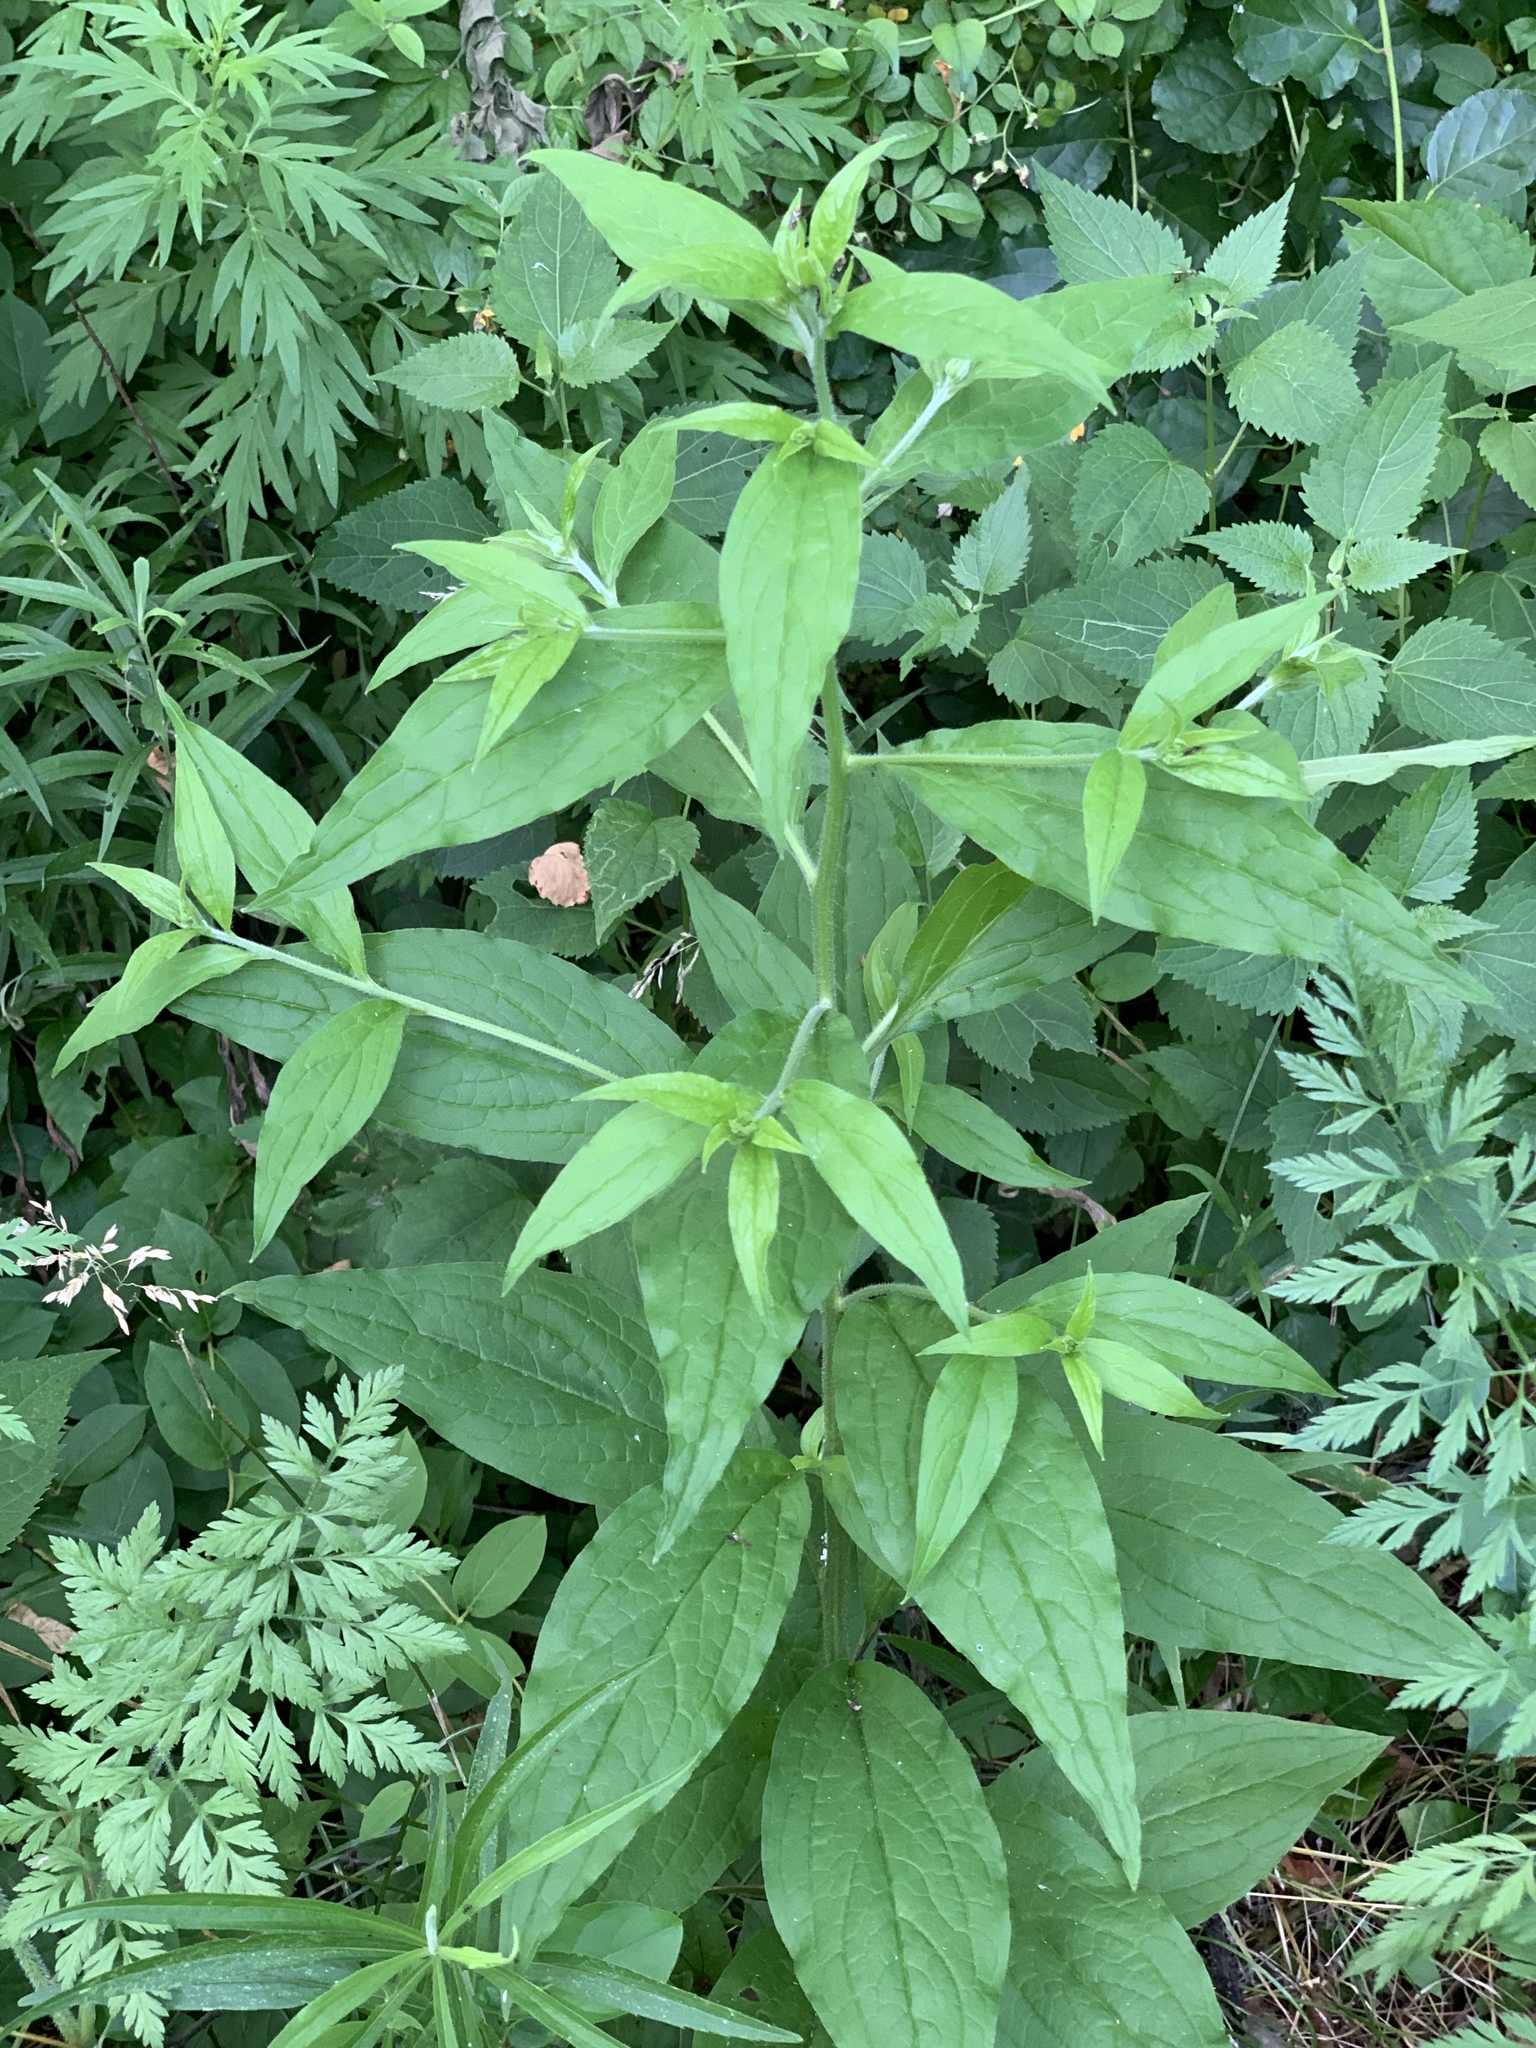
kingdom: Plantae
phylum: Tracheophyta
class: Magnoliopsida
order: Boraginales
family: Boraginaceae
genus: Hackelia
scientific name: Hackelia virginiana
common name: Beggar's-lice
